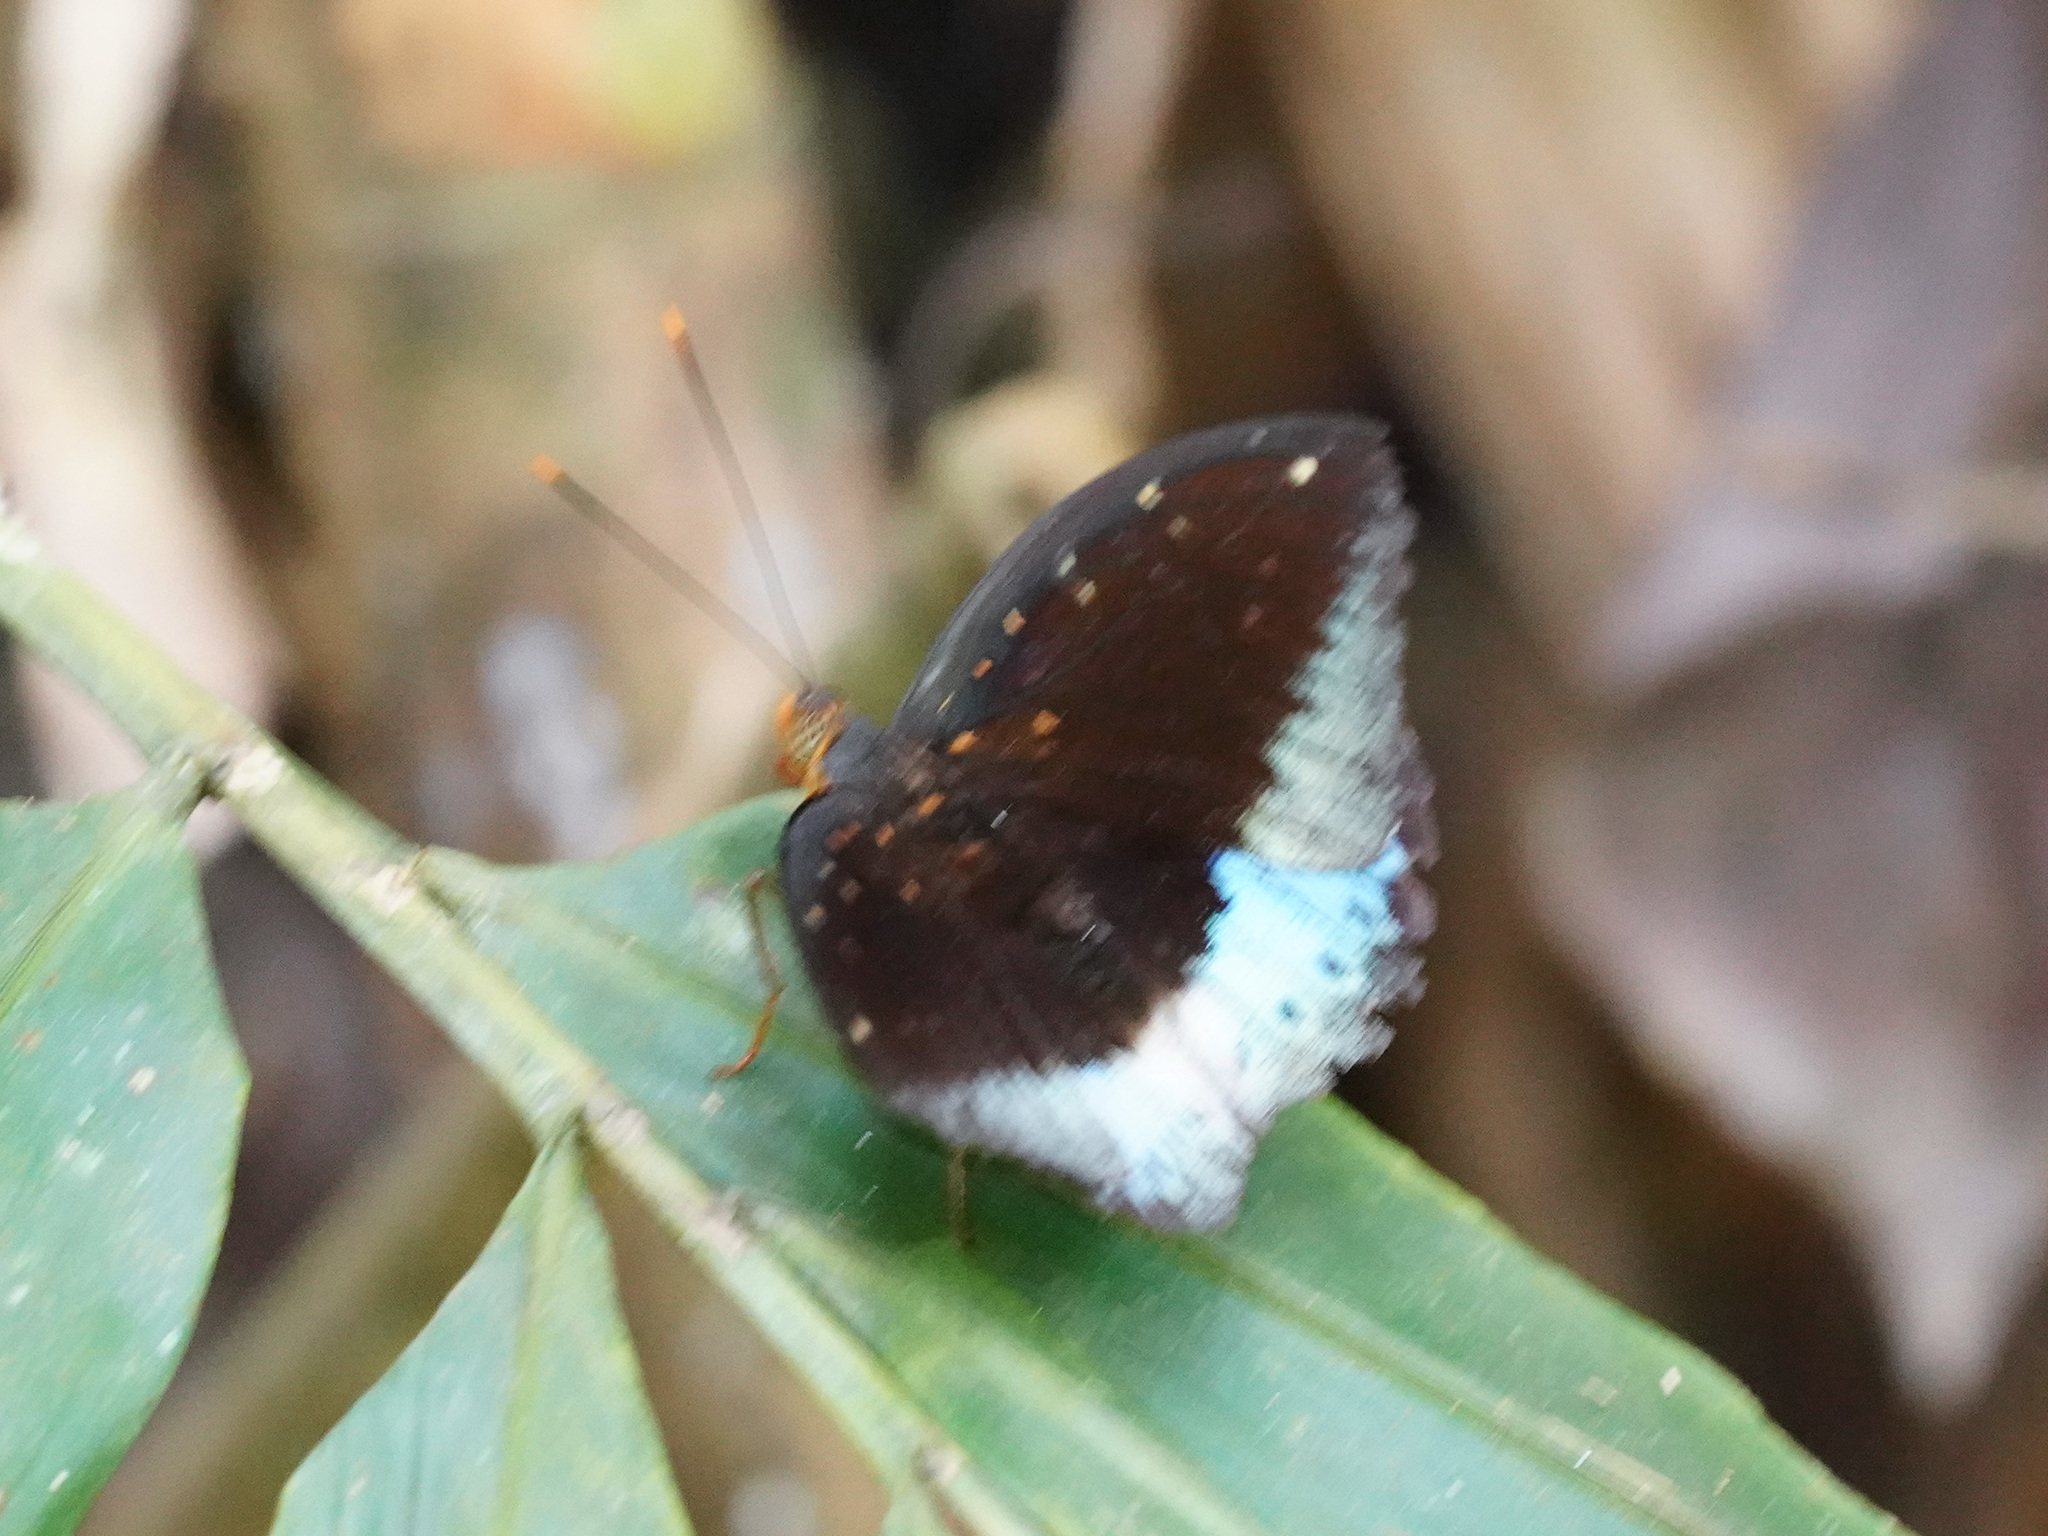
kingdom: Animalia
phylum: Arthropoda
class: Insecta
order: Lepidoptera
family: Nymphalidae
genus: Lexias
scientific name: Lexias pardalis
